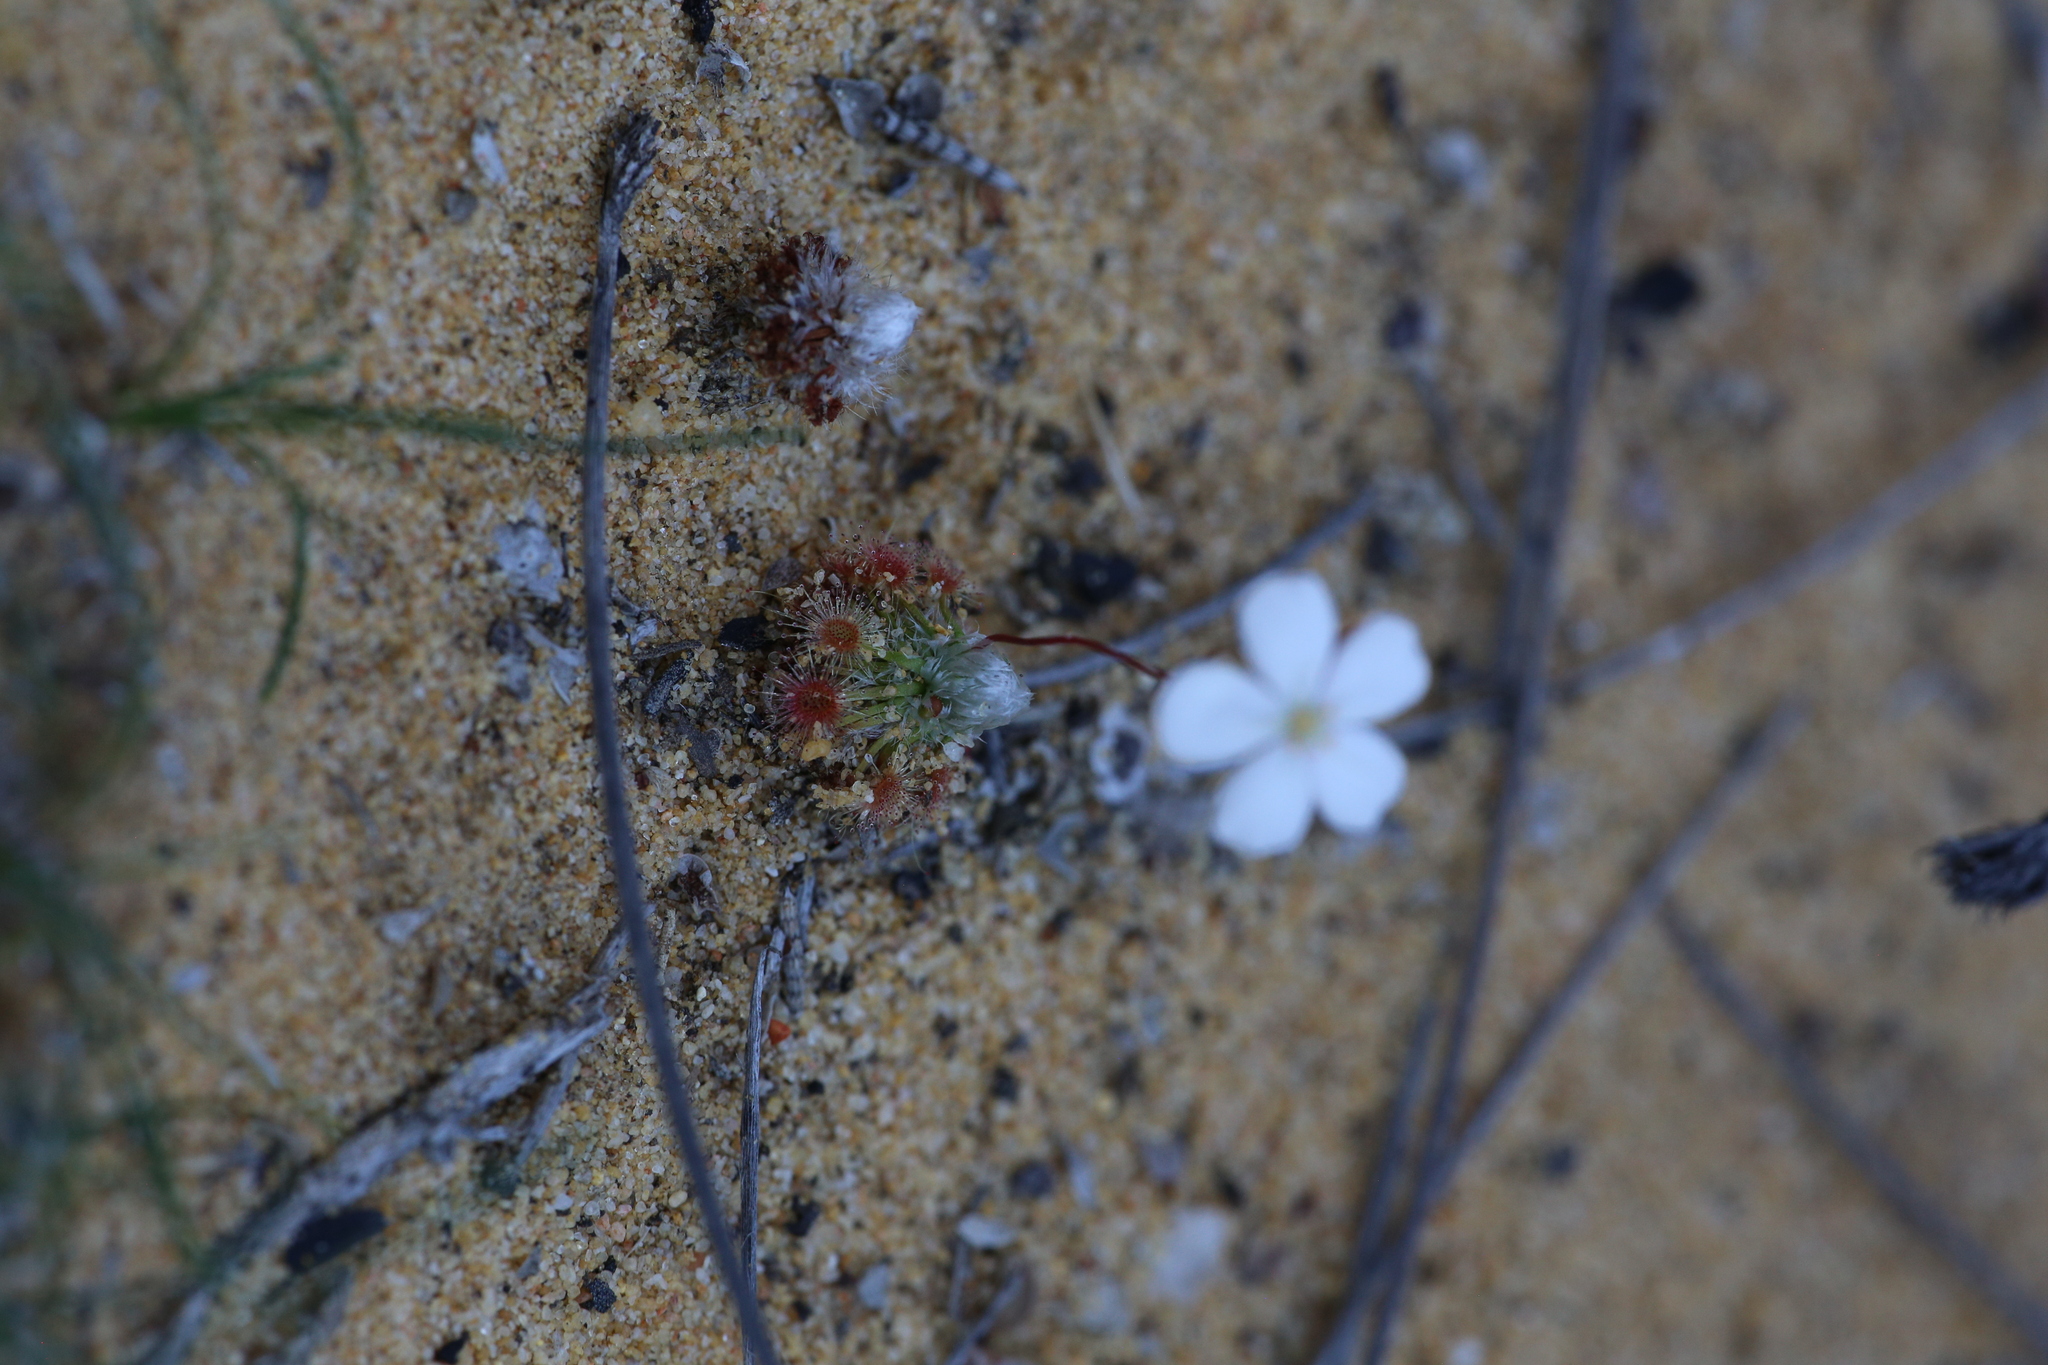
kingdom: Plantae
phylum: Tracheophyta
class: Magnoliopsida
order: Caryophyllales
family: Droseraceae
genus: Drosera
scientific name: Drosera citrina
